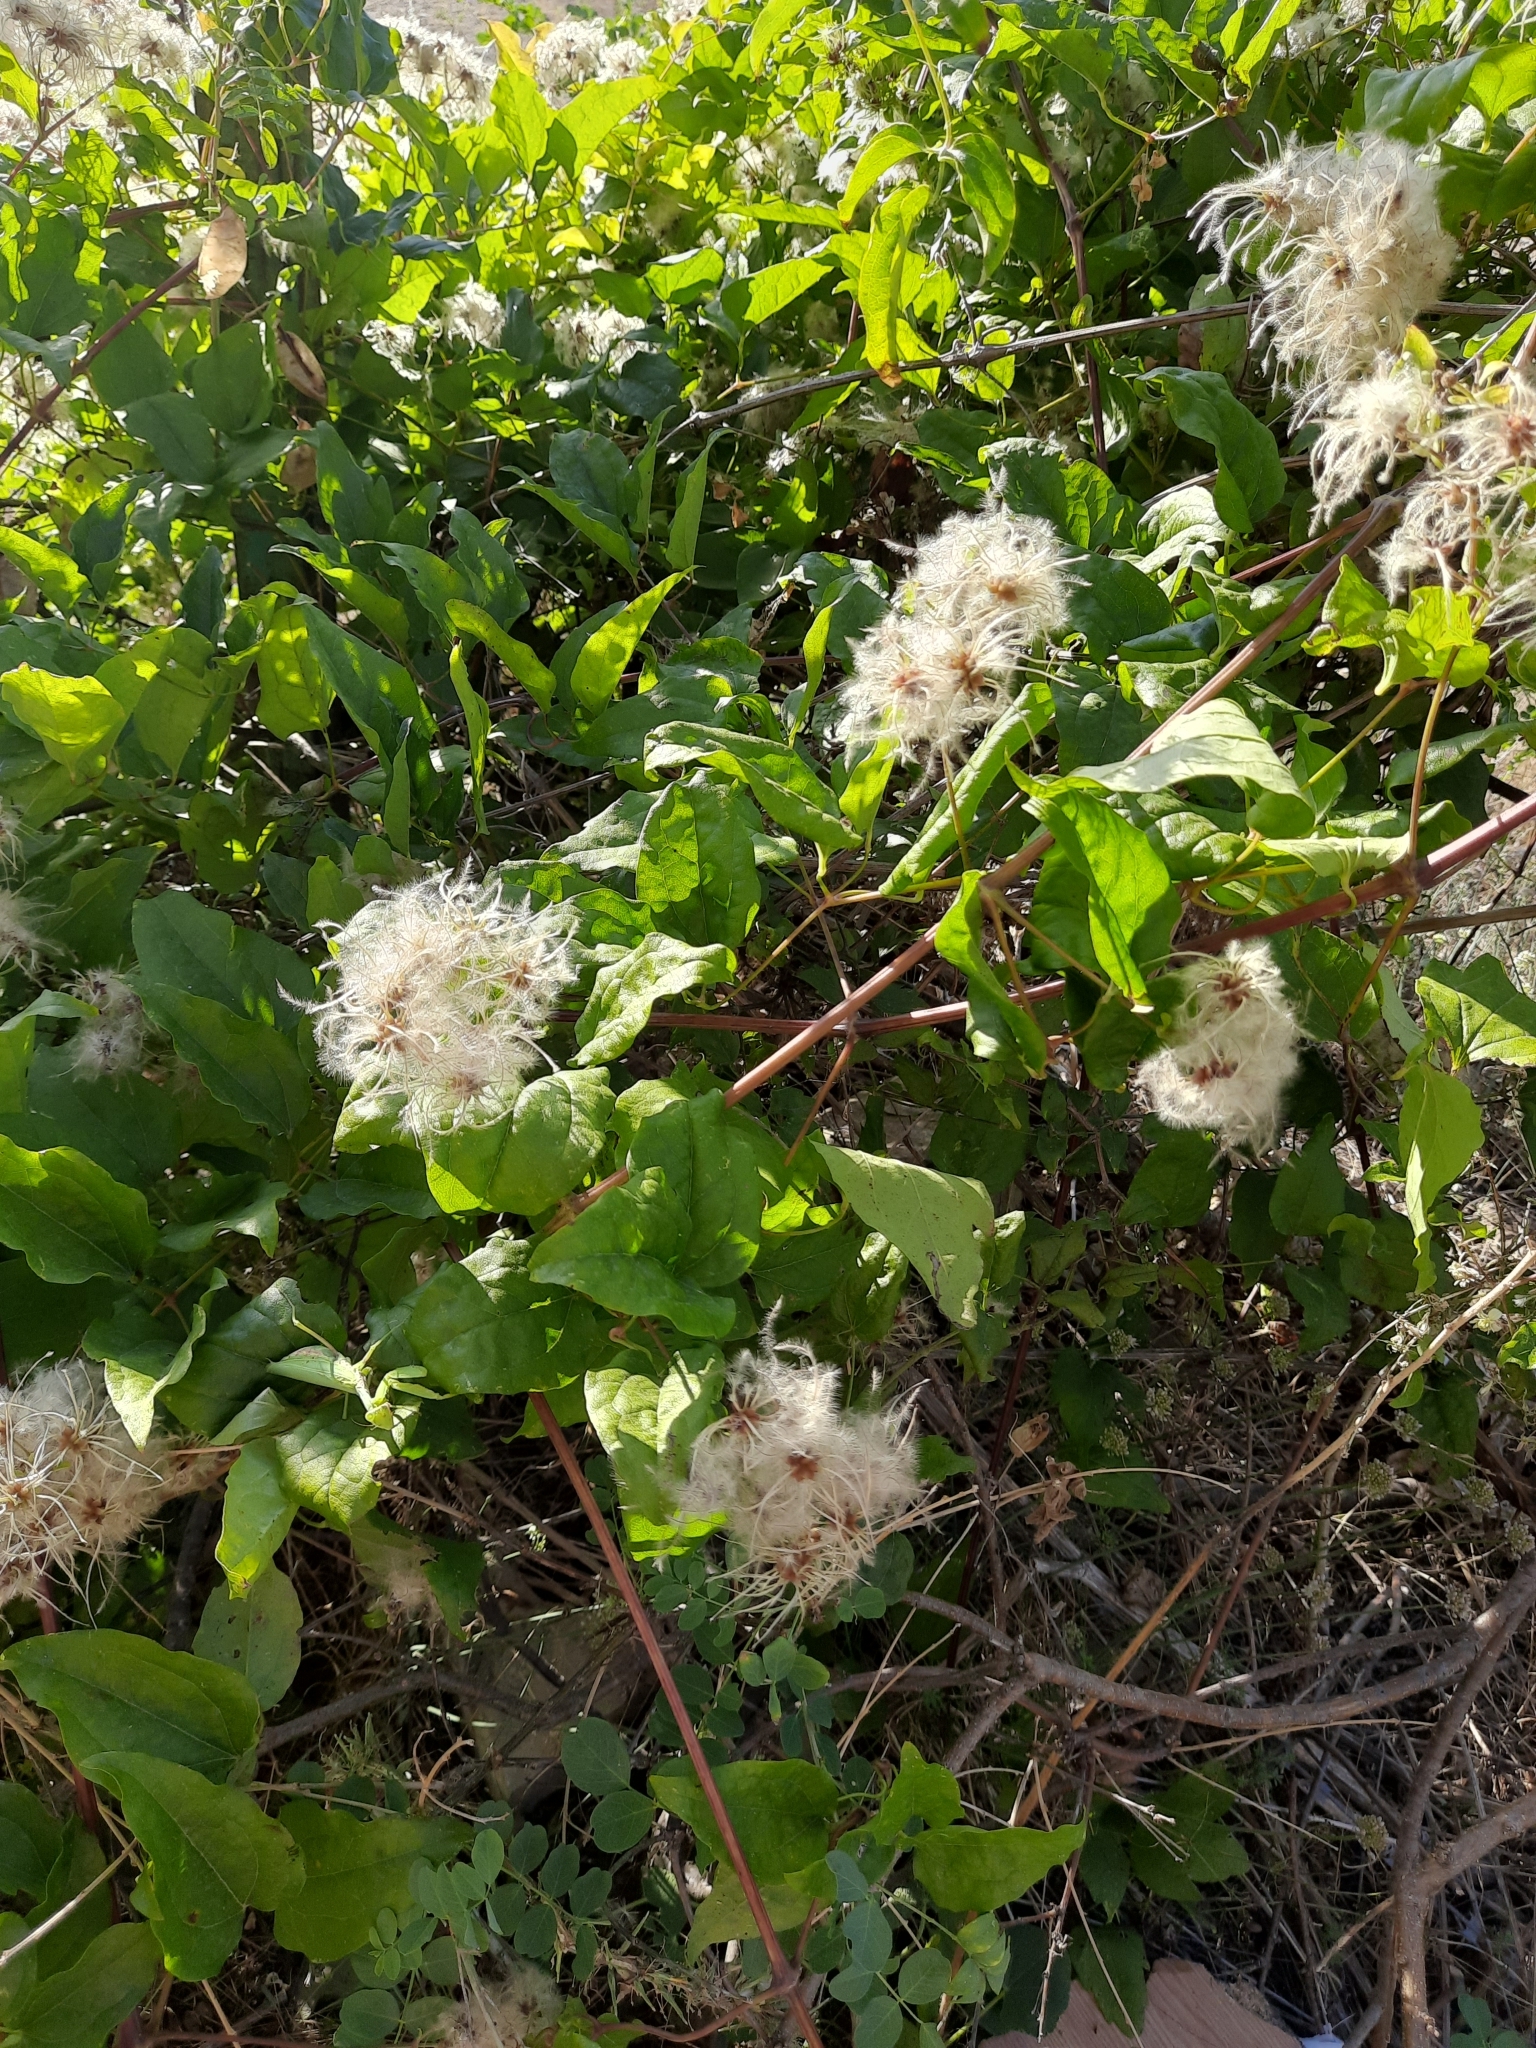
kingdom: Plantae
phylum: Tracheophyta
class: Magnoliopsida
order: Ranunculales
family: Ranunculaceae
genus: Clematis
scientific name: Clematis vitalba
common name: Evergreen clematis
